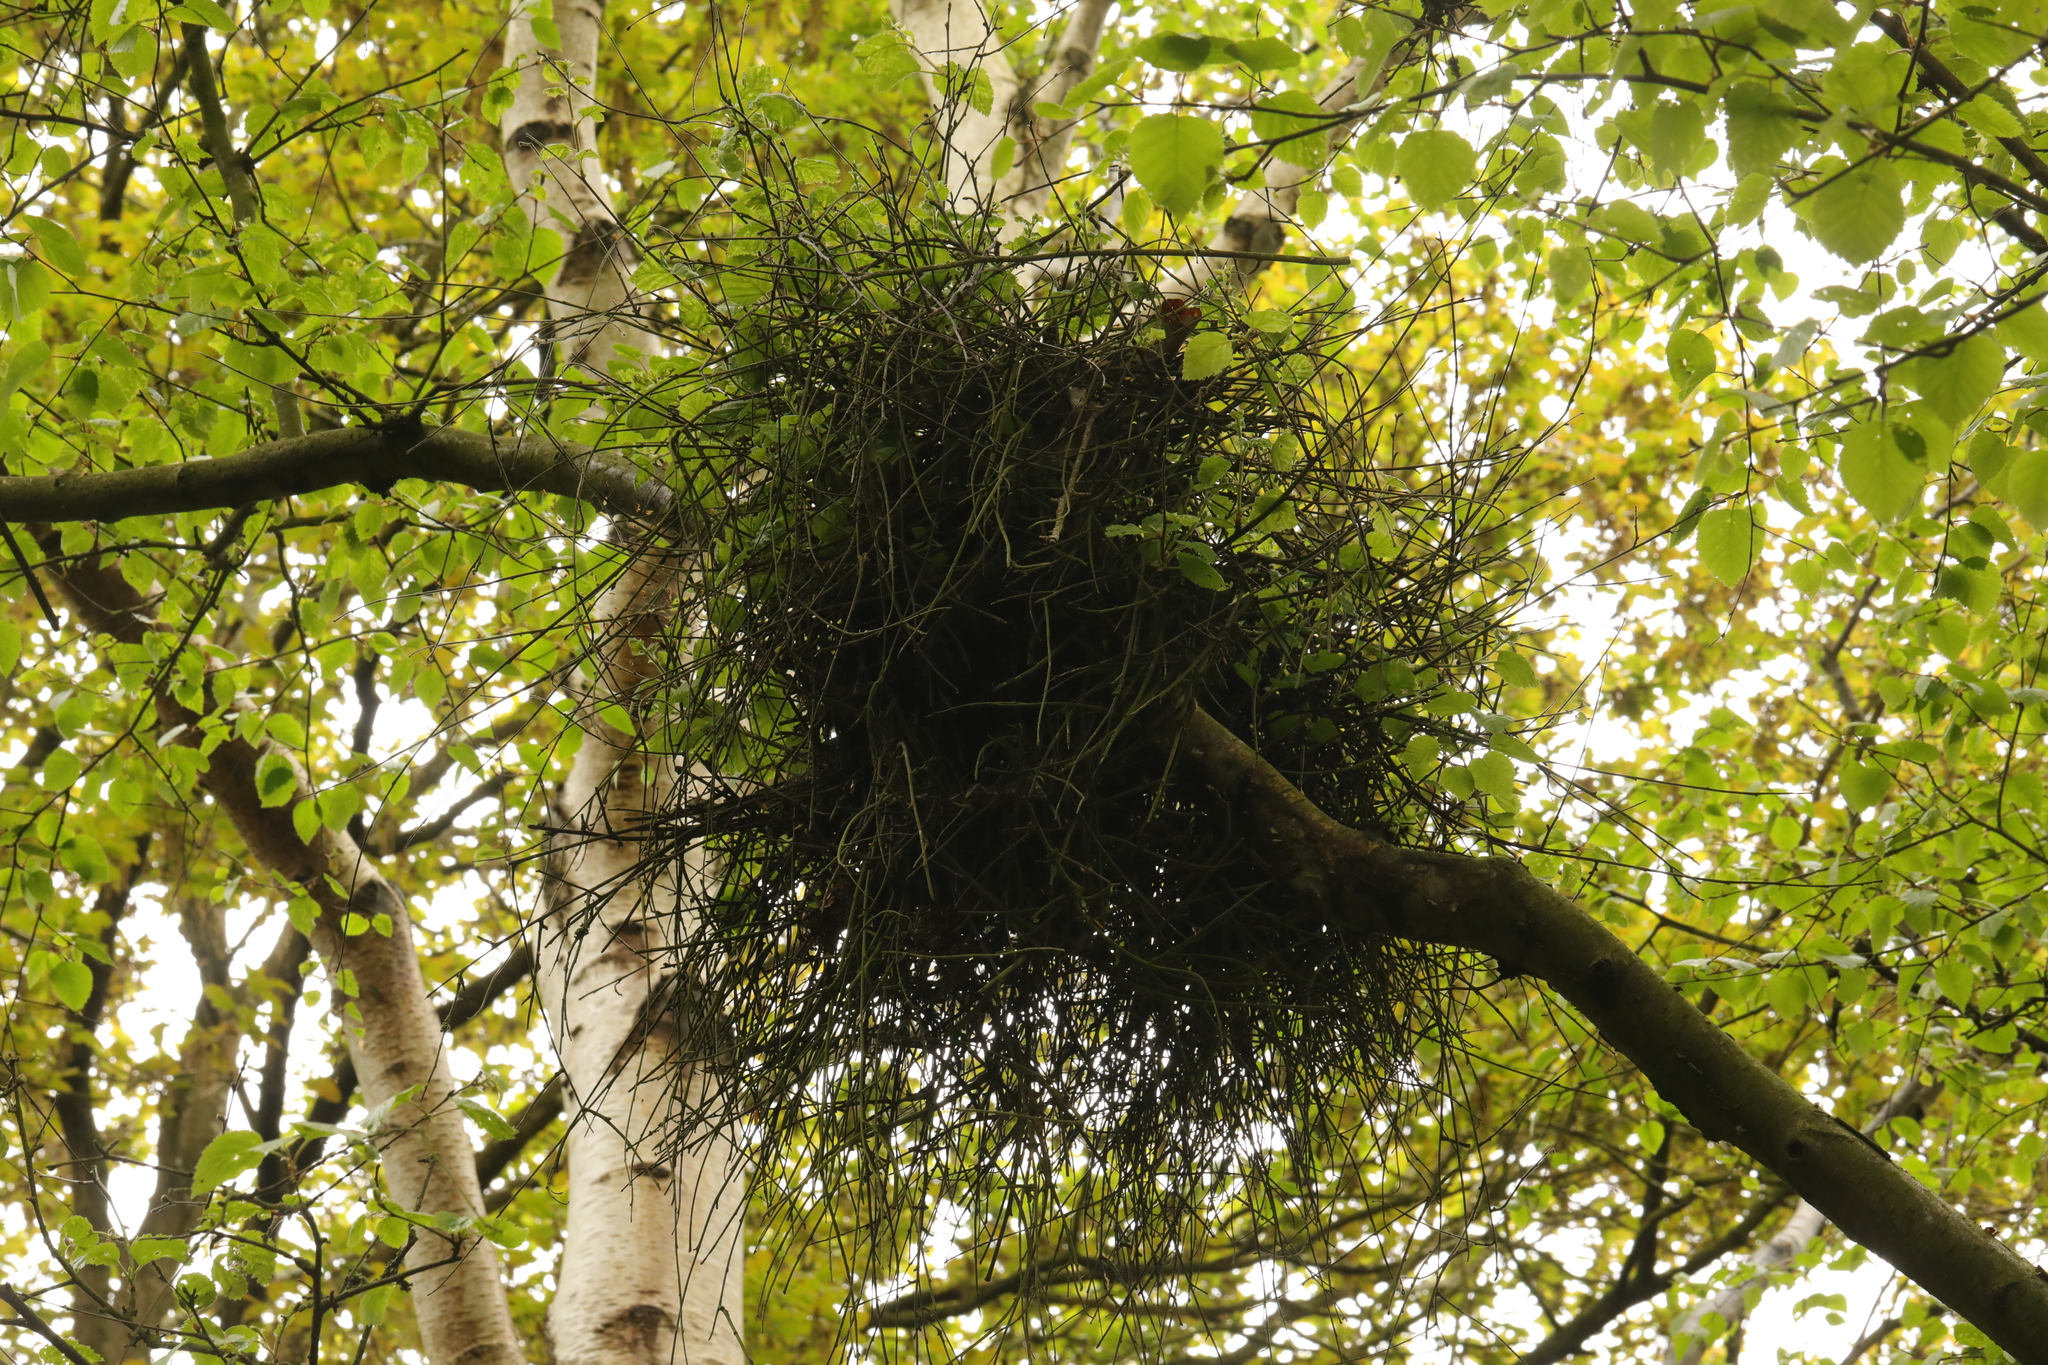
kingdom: Fungi
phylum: Ascomycota
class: Taphrinomycetes
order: Taphrinales
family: Taphrinaceae
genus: Taphrina
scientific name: Taphrina betulina
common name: Birch besom
